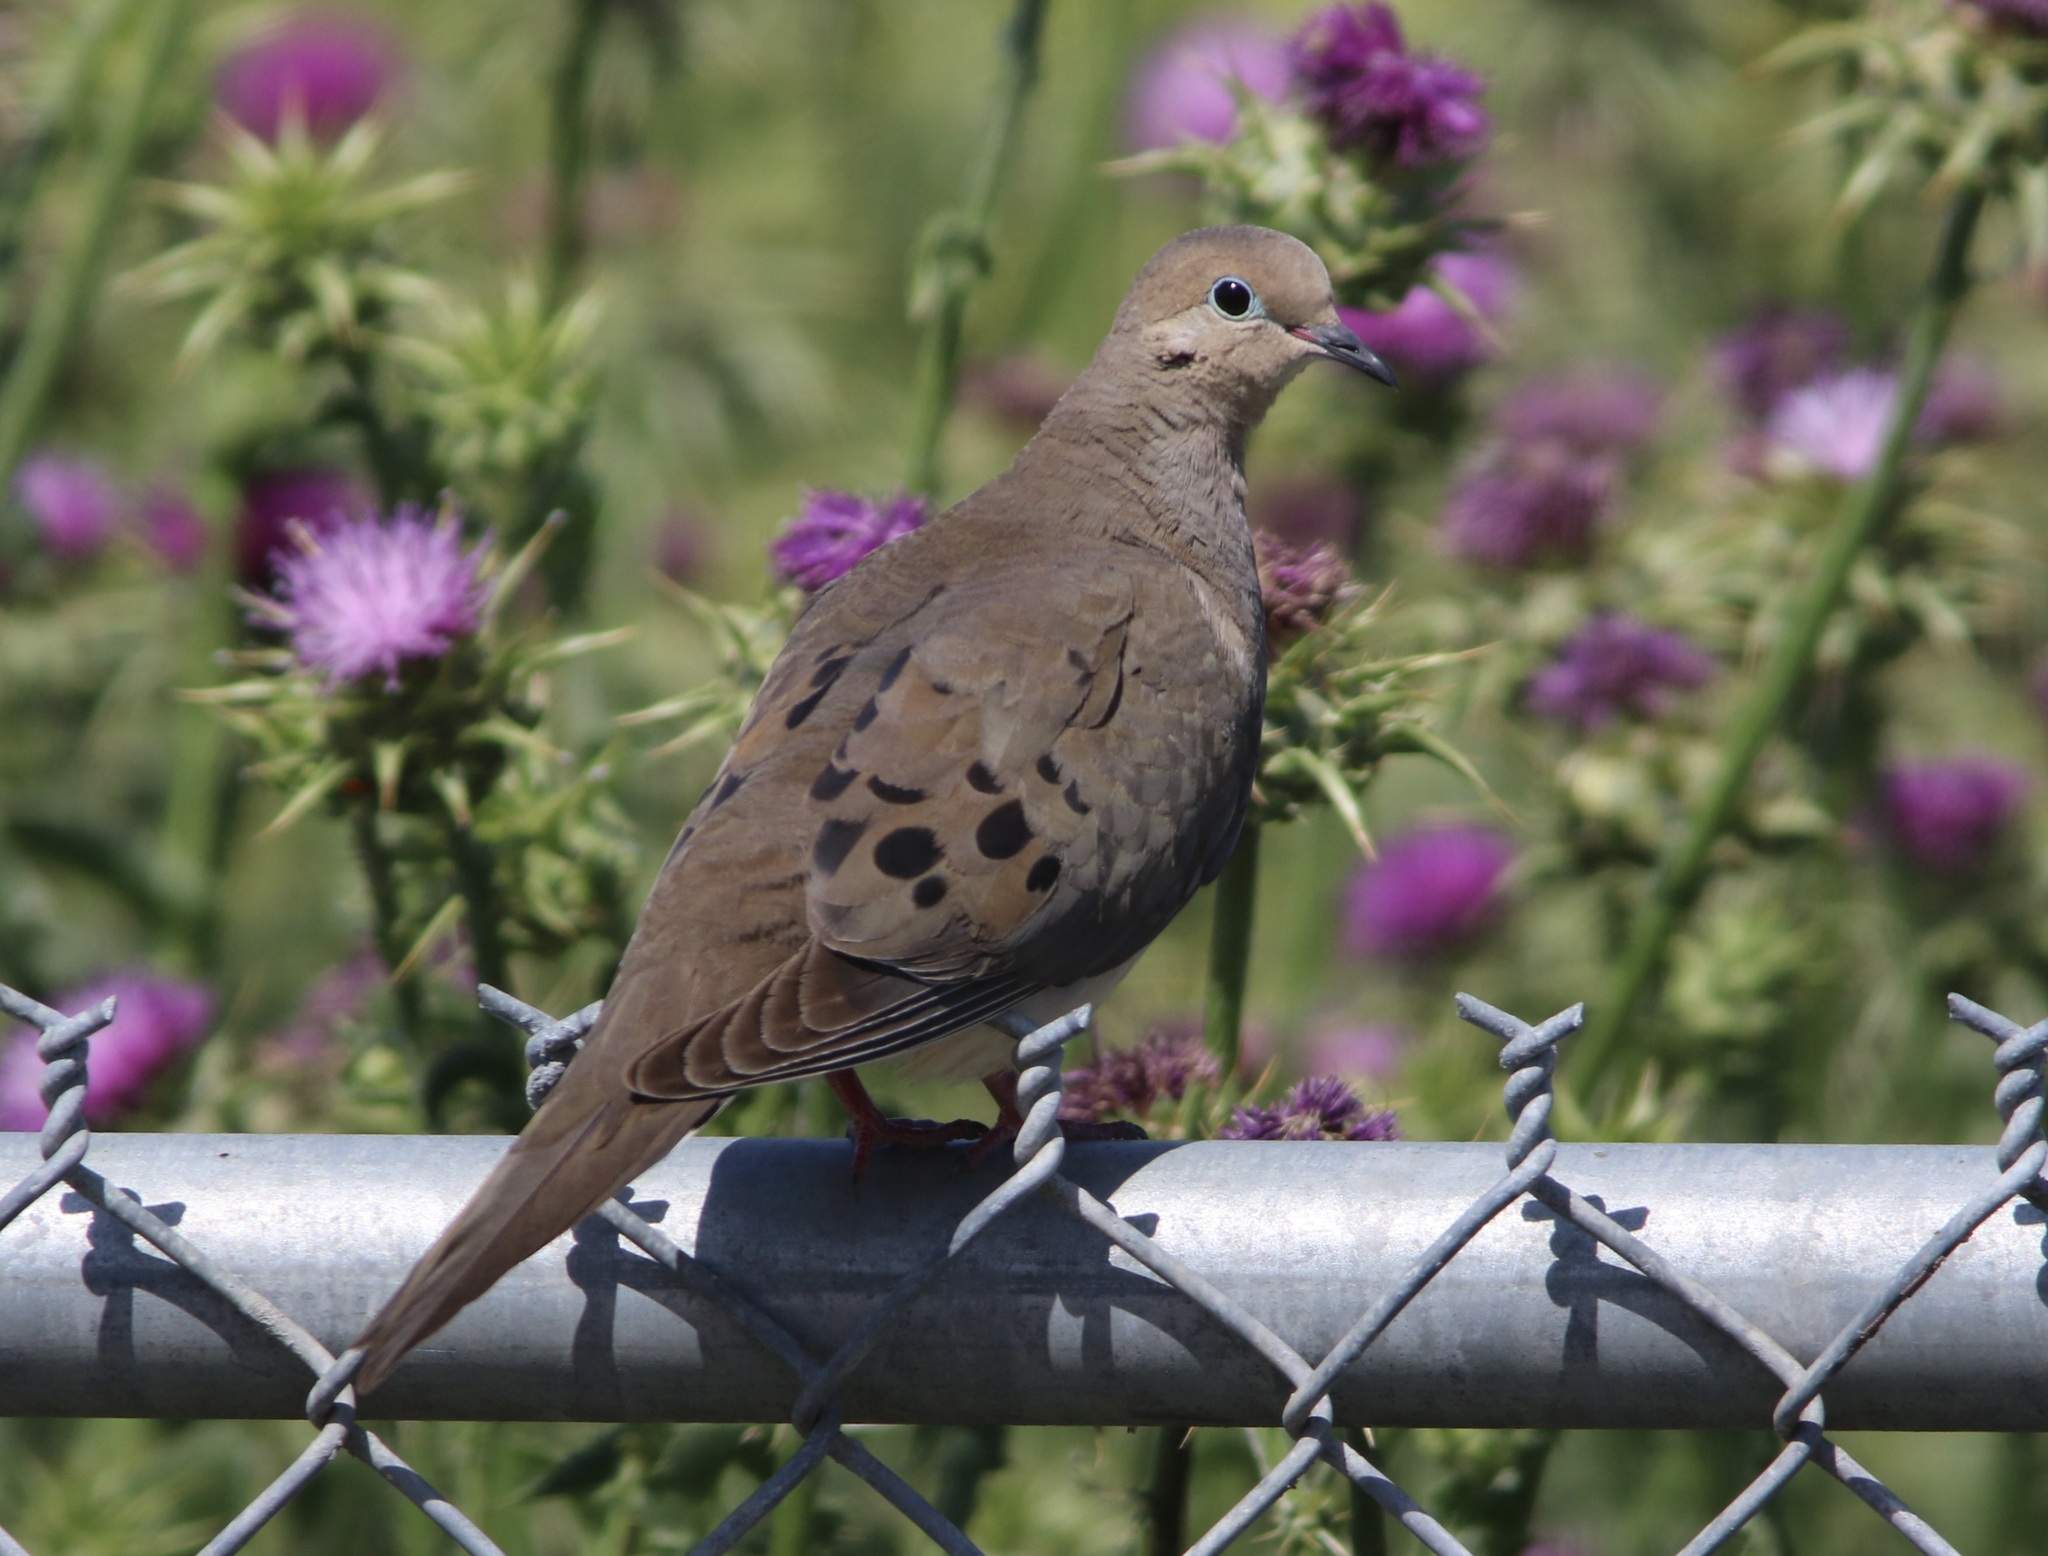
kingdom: Animalia
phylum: Chordata
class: Aves
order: Columbiformes
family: Columbidae
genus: Zenaida
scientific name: Zenaida macroura
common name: Mourning dove
